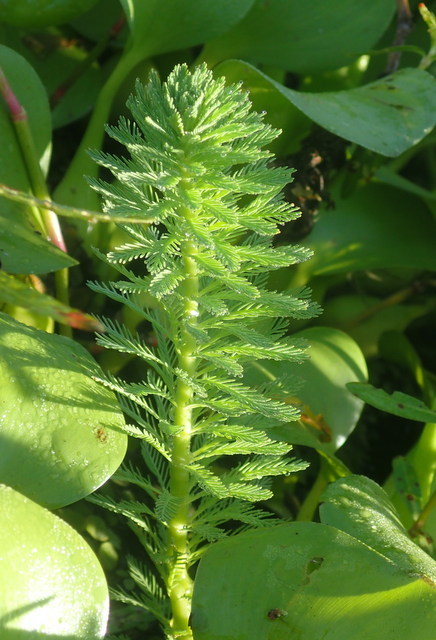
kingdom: Plantae
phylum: Tracheophyta
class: Magnoliopsida
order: Saxifragales
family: Haloragaceae
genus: Myriophyllum
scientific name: Myriophyllum aquaticum
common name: Parrot's feather
